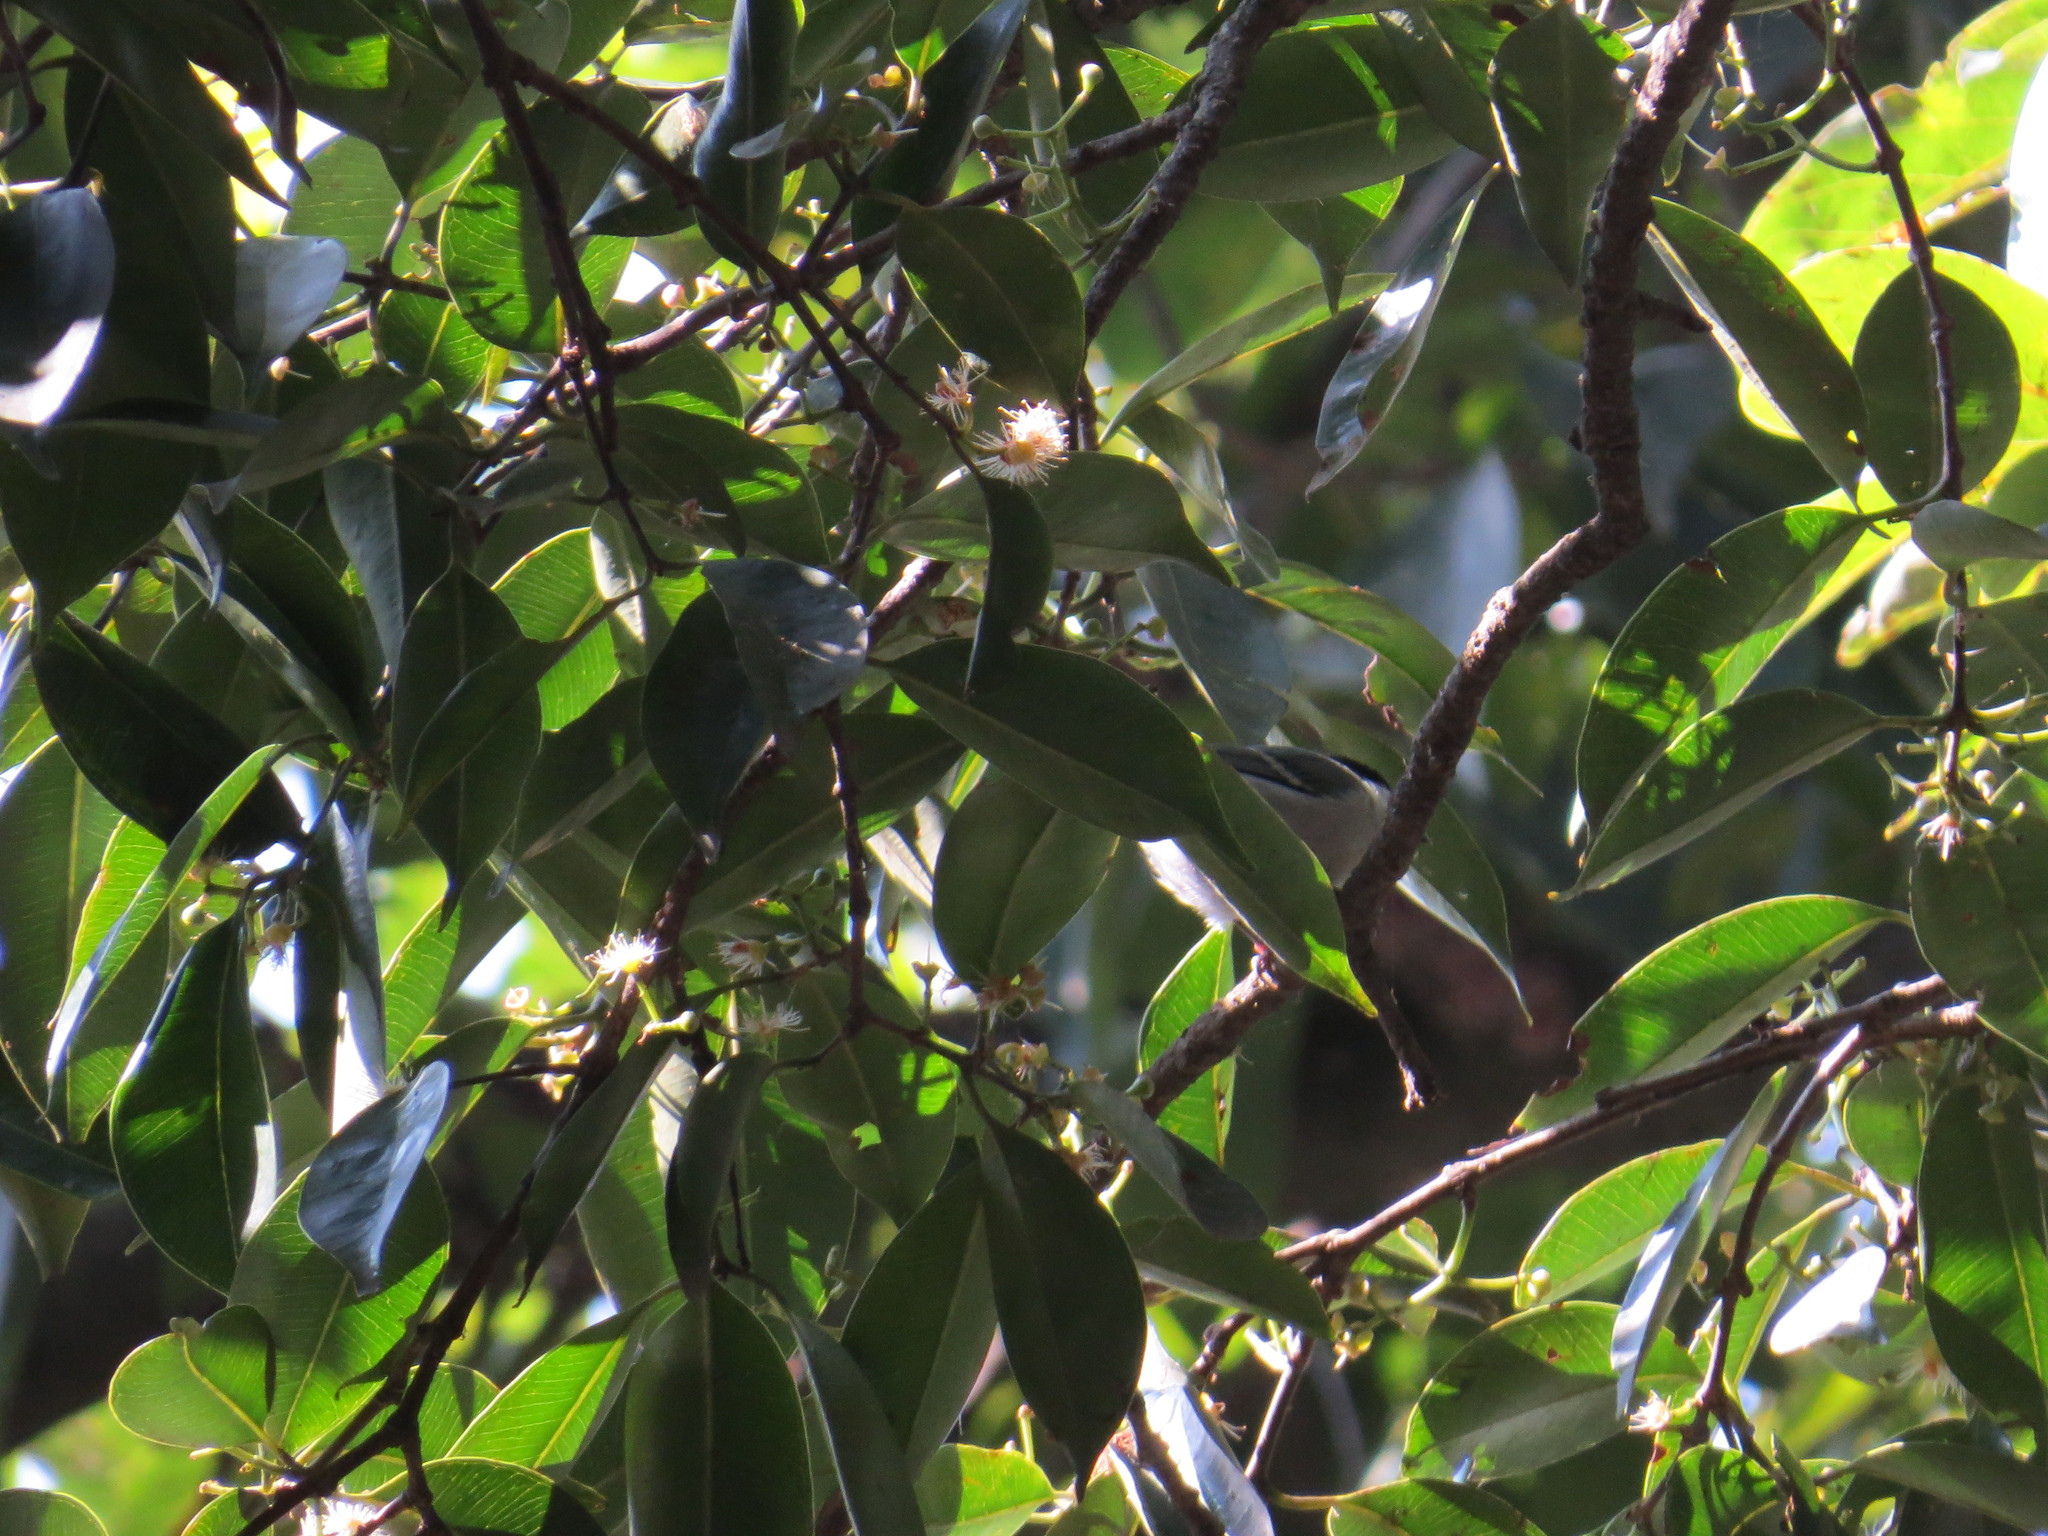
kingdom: Animalia
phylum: Chordata
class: Aves
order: Passeriformes
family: Paridae
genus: Parus
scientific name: Parus cinereus
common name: Cinereous tit
